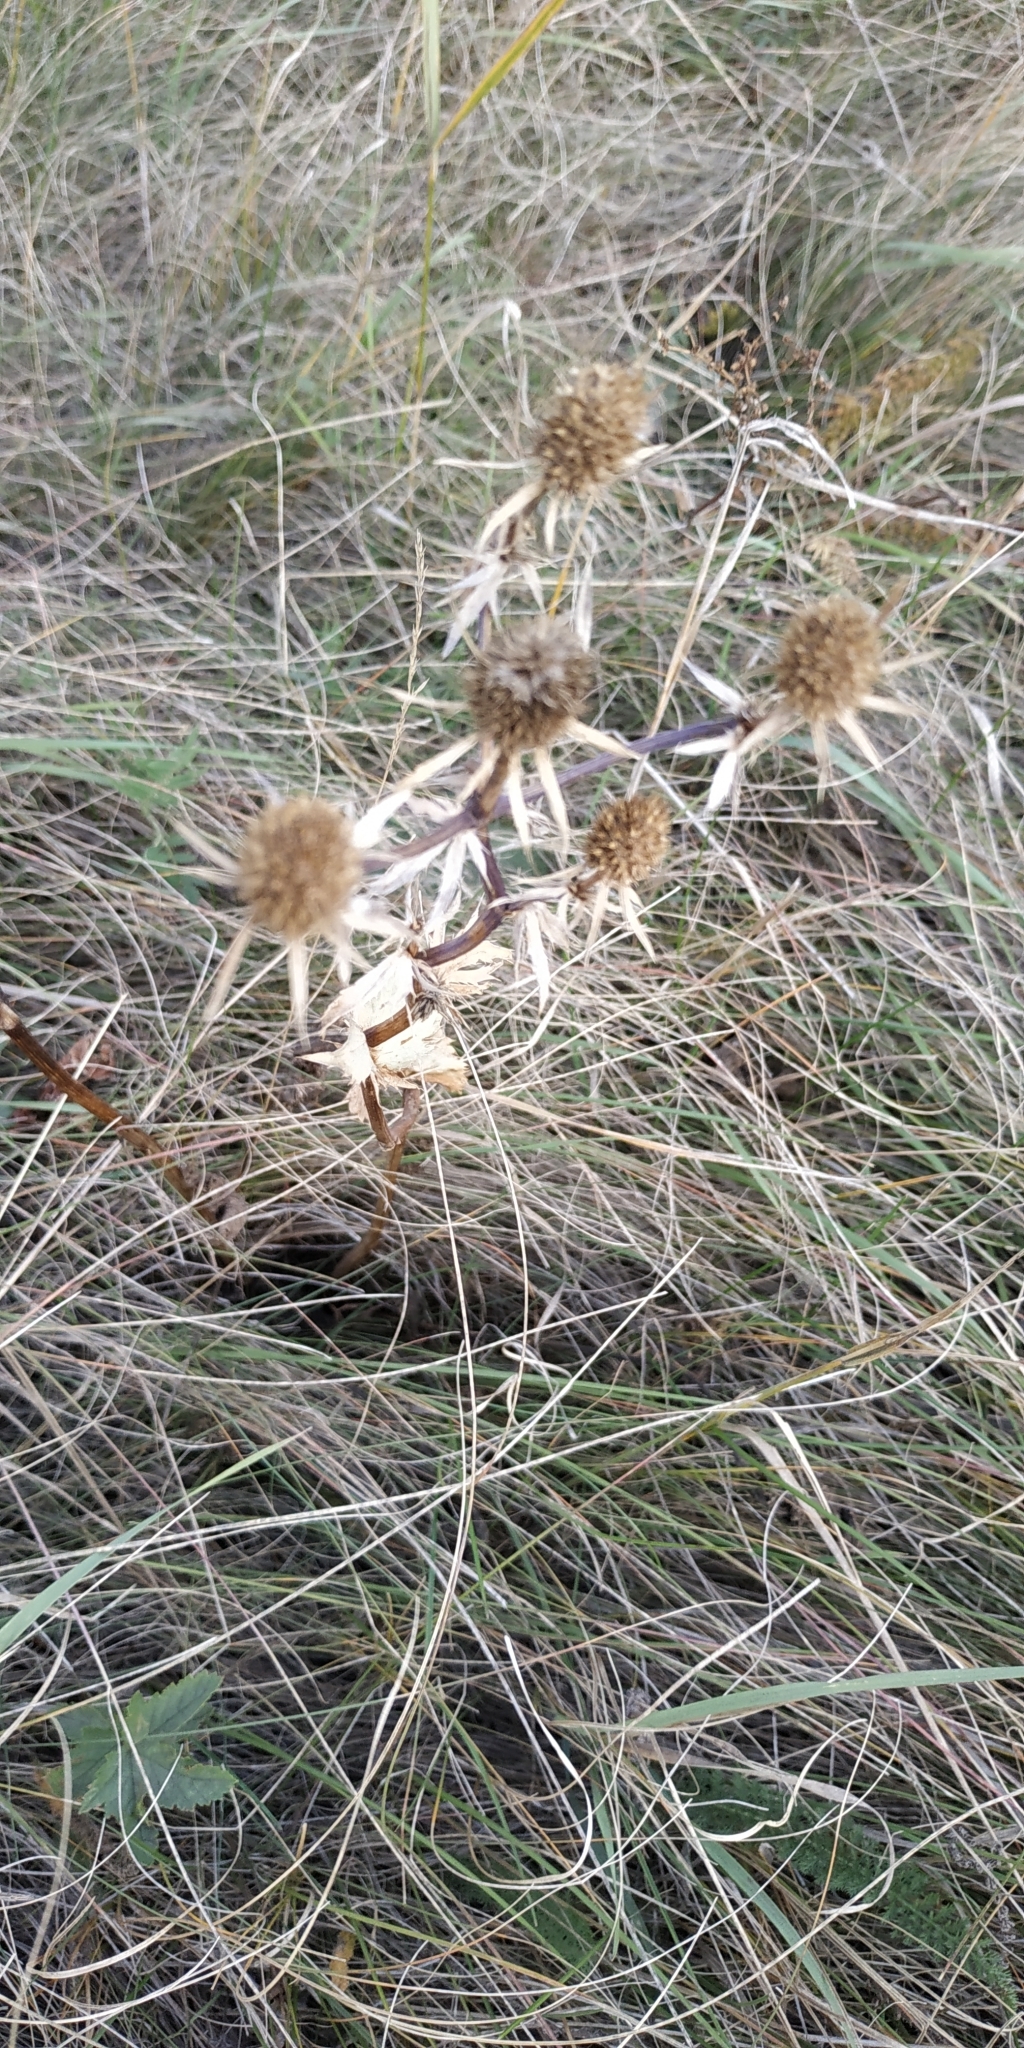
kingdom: Plantae
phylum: Tracheophyta
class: Magnoliopsida
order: Apiales
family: Apiaceae
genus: Eryngium
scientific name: Eryngium planum
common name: Blue eryngo
